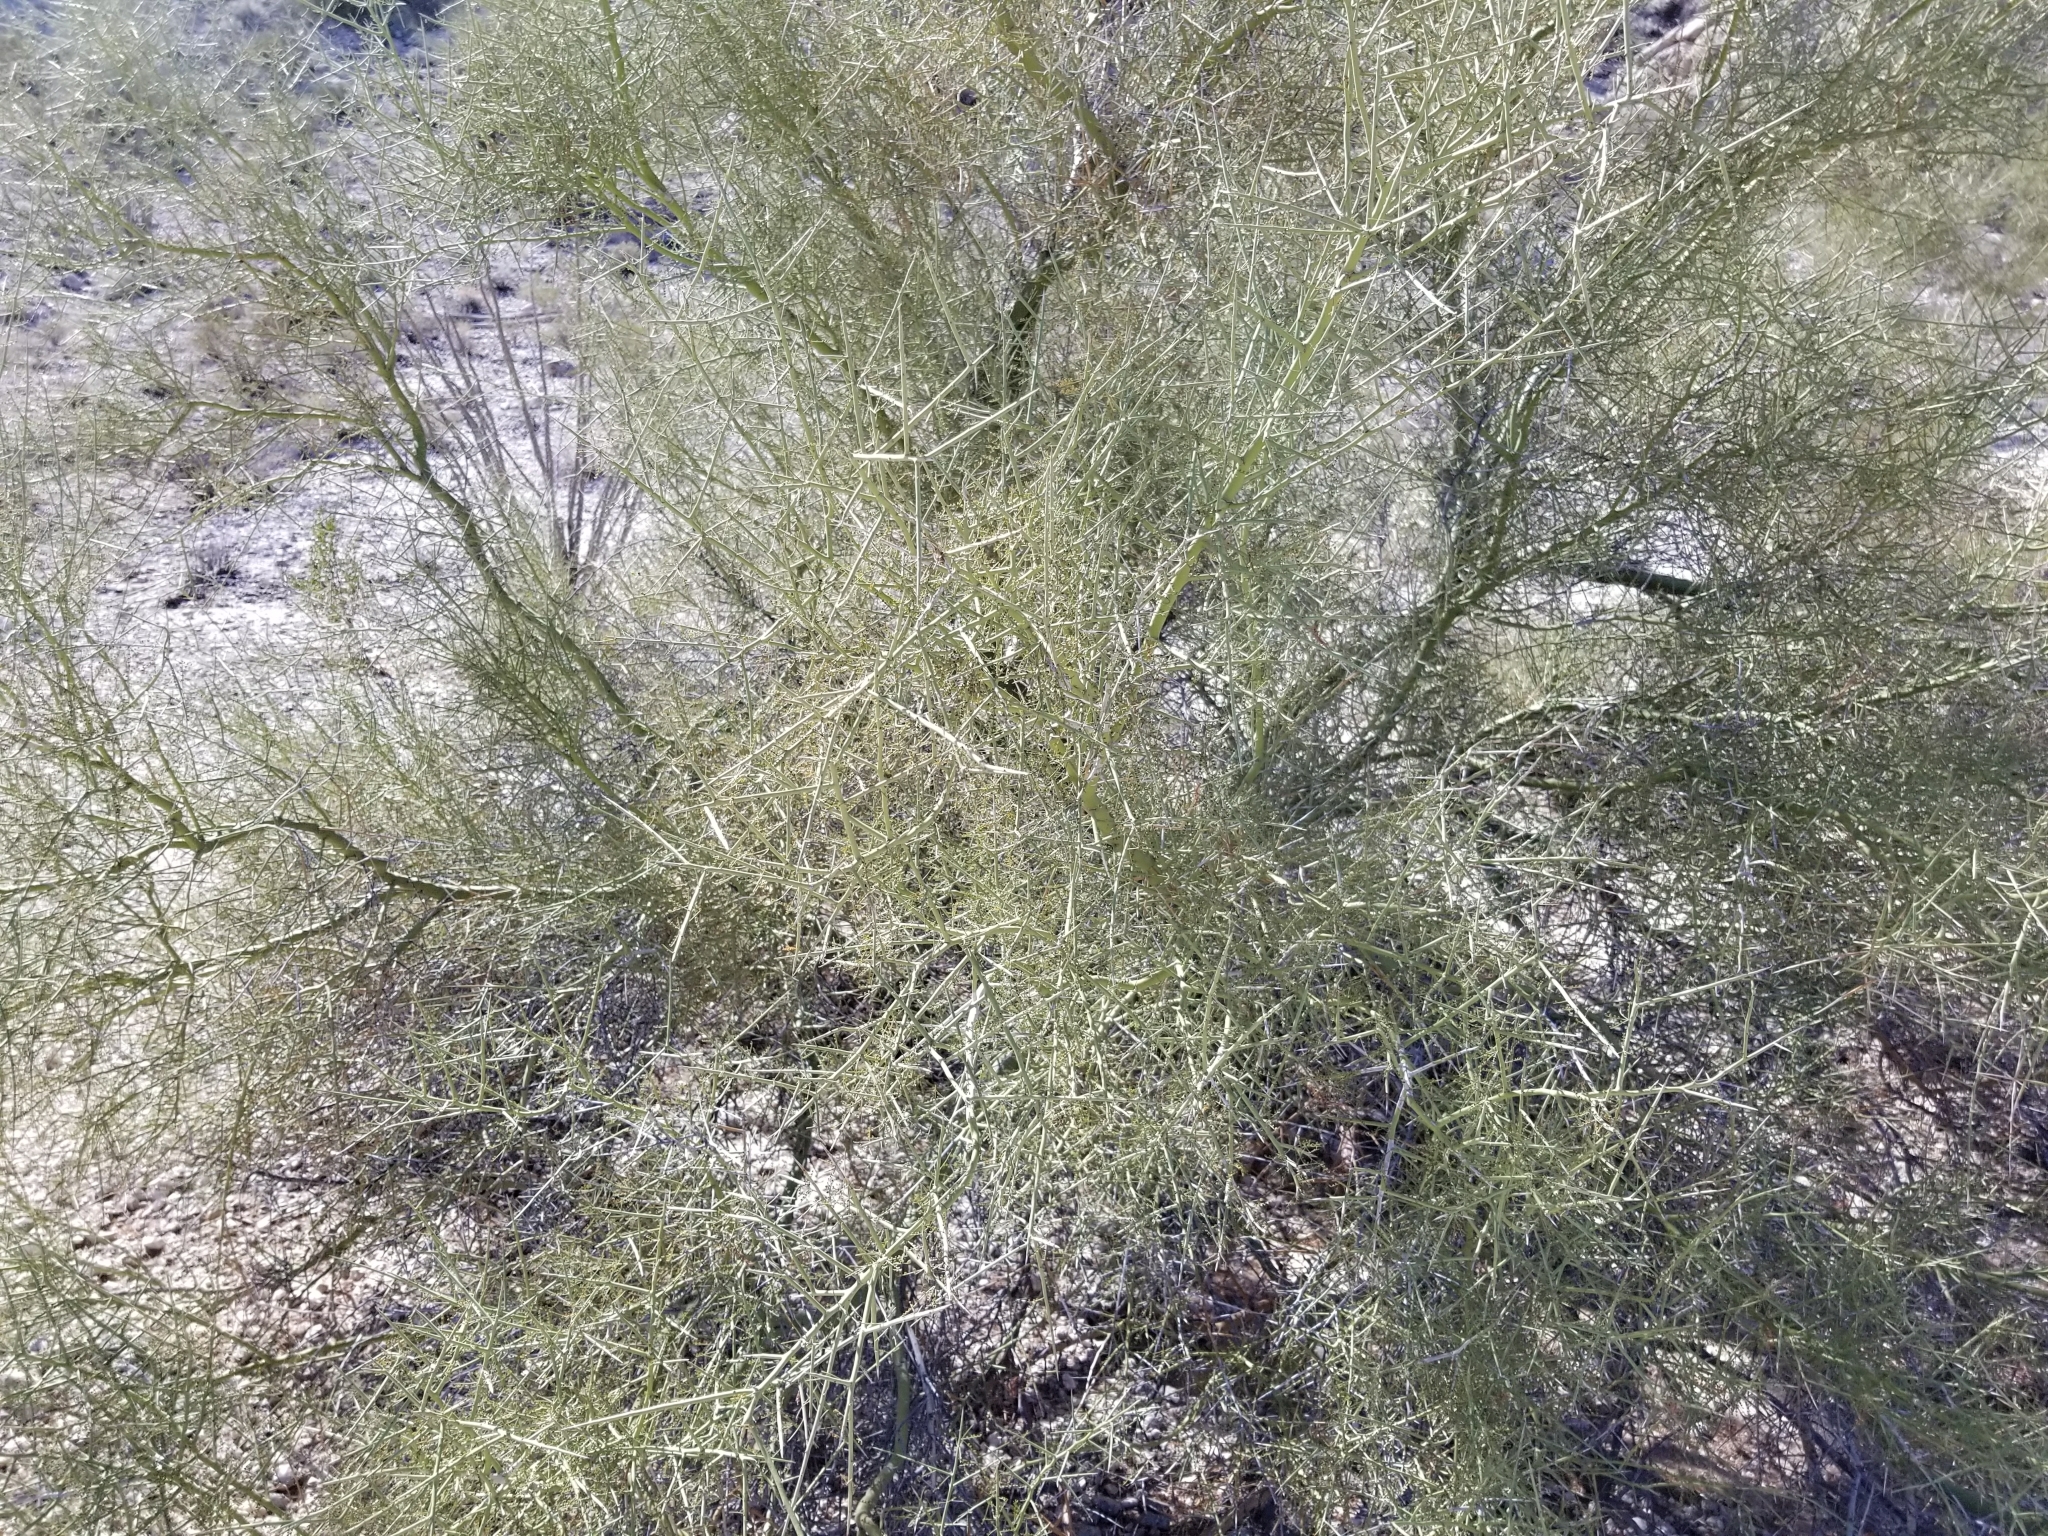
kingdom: Plantae
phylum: Tracheophyta
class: Magnoliopsida
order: Fabales
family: Fabaceae
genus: Parkinsonia
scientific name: Parkinsonia microphylla
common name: Yellow paloverde
